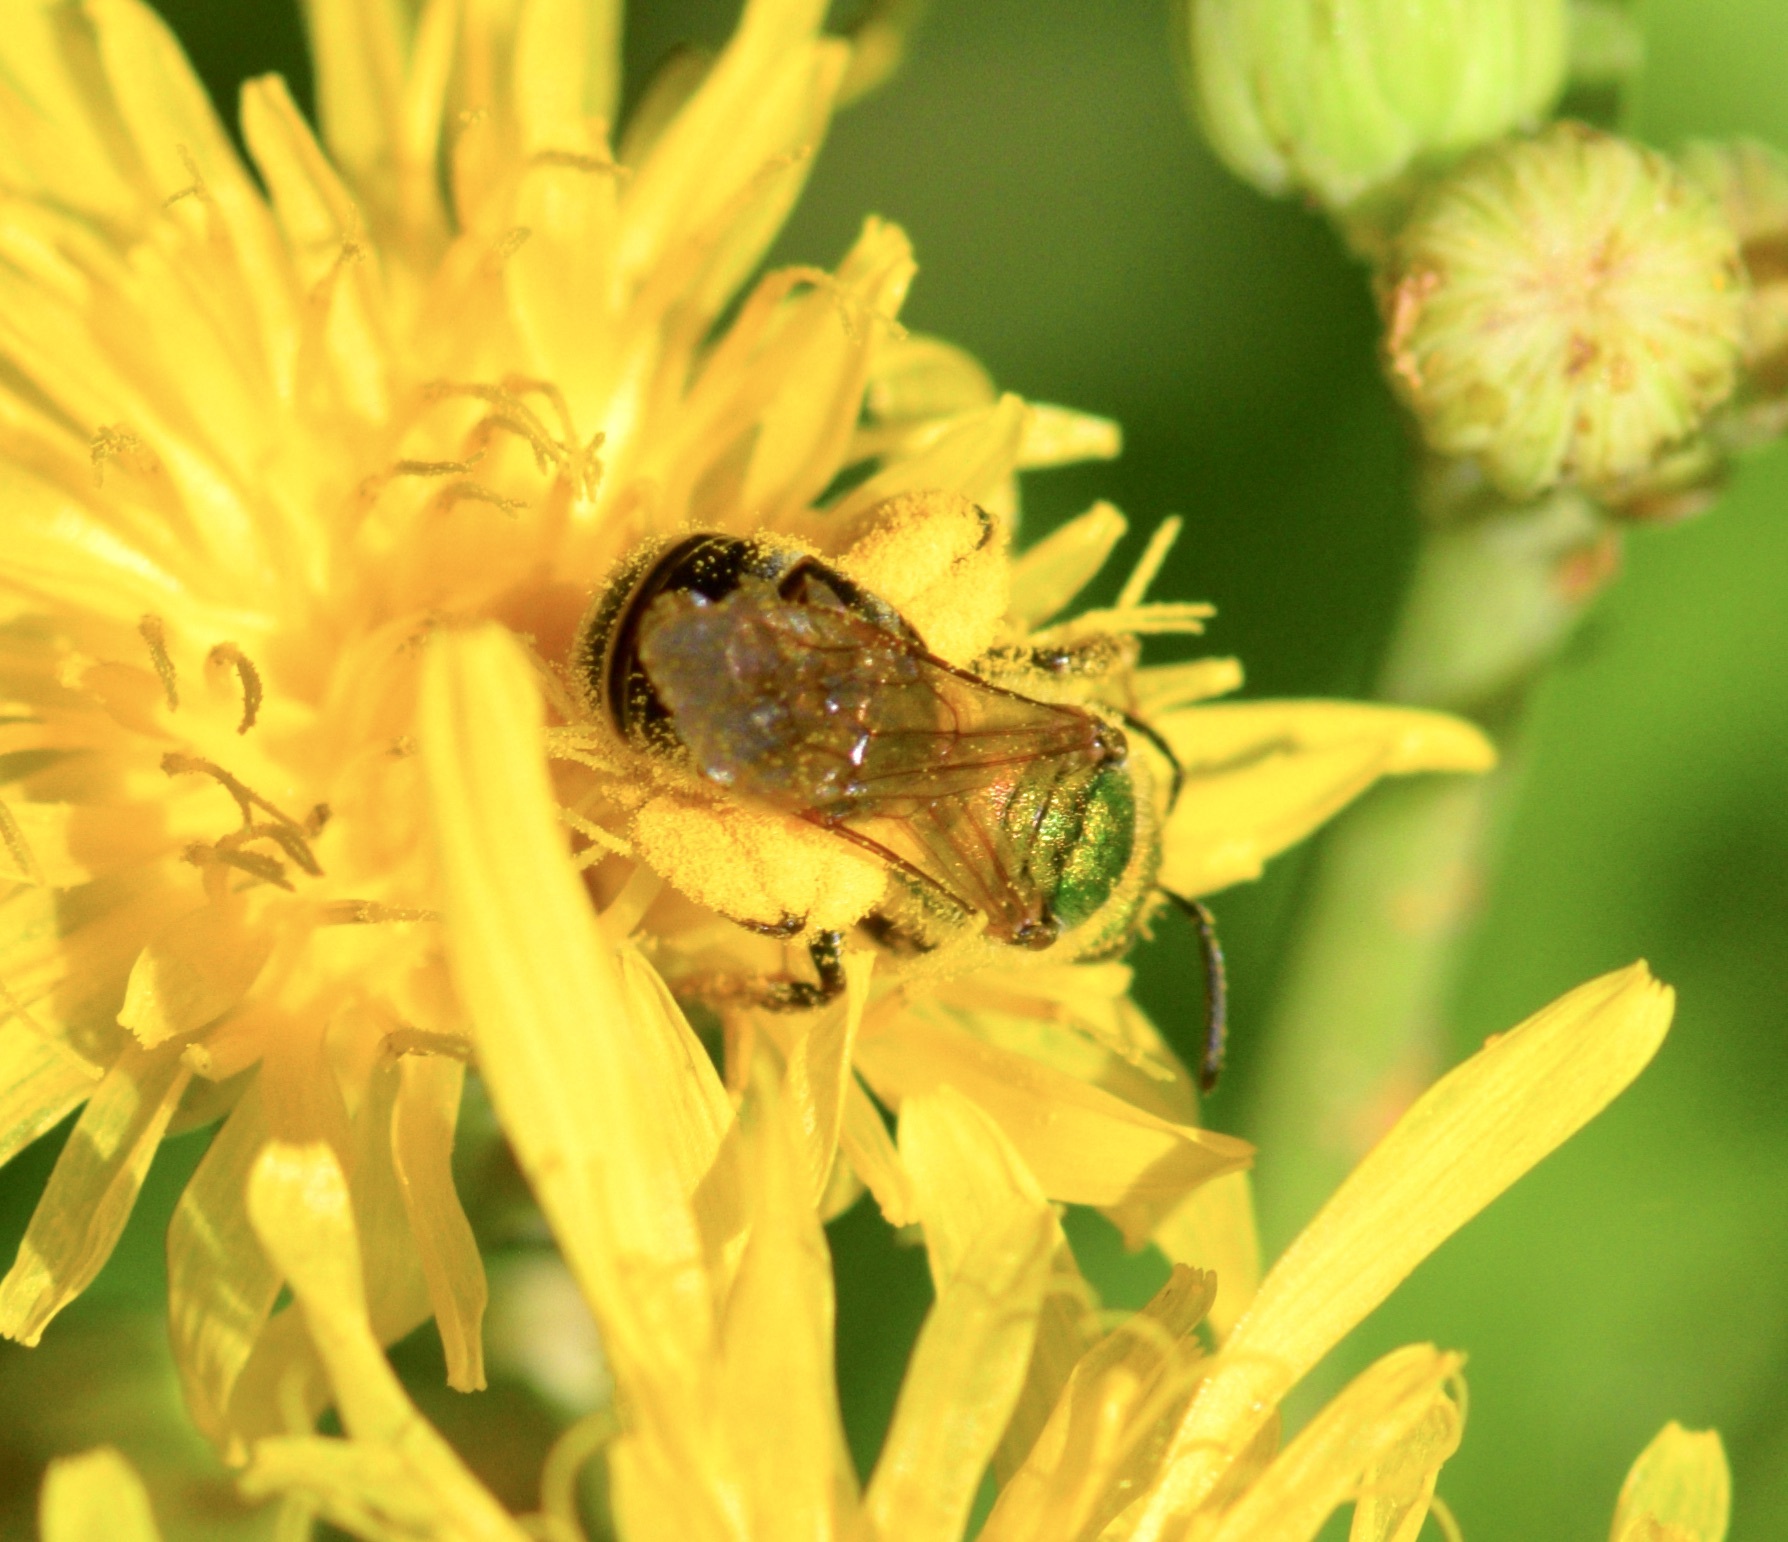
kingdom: Animalia
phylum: Arthropoda
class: Insecta
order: Hymenoptera
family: Halictidae
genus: Agapostemon
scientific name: Agapostemon virescens
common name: Bicolored striped sweat bee
